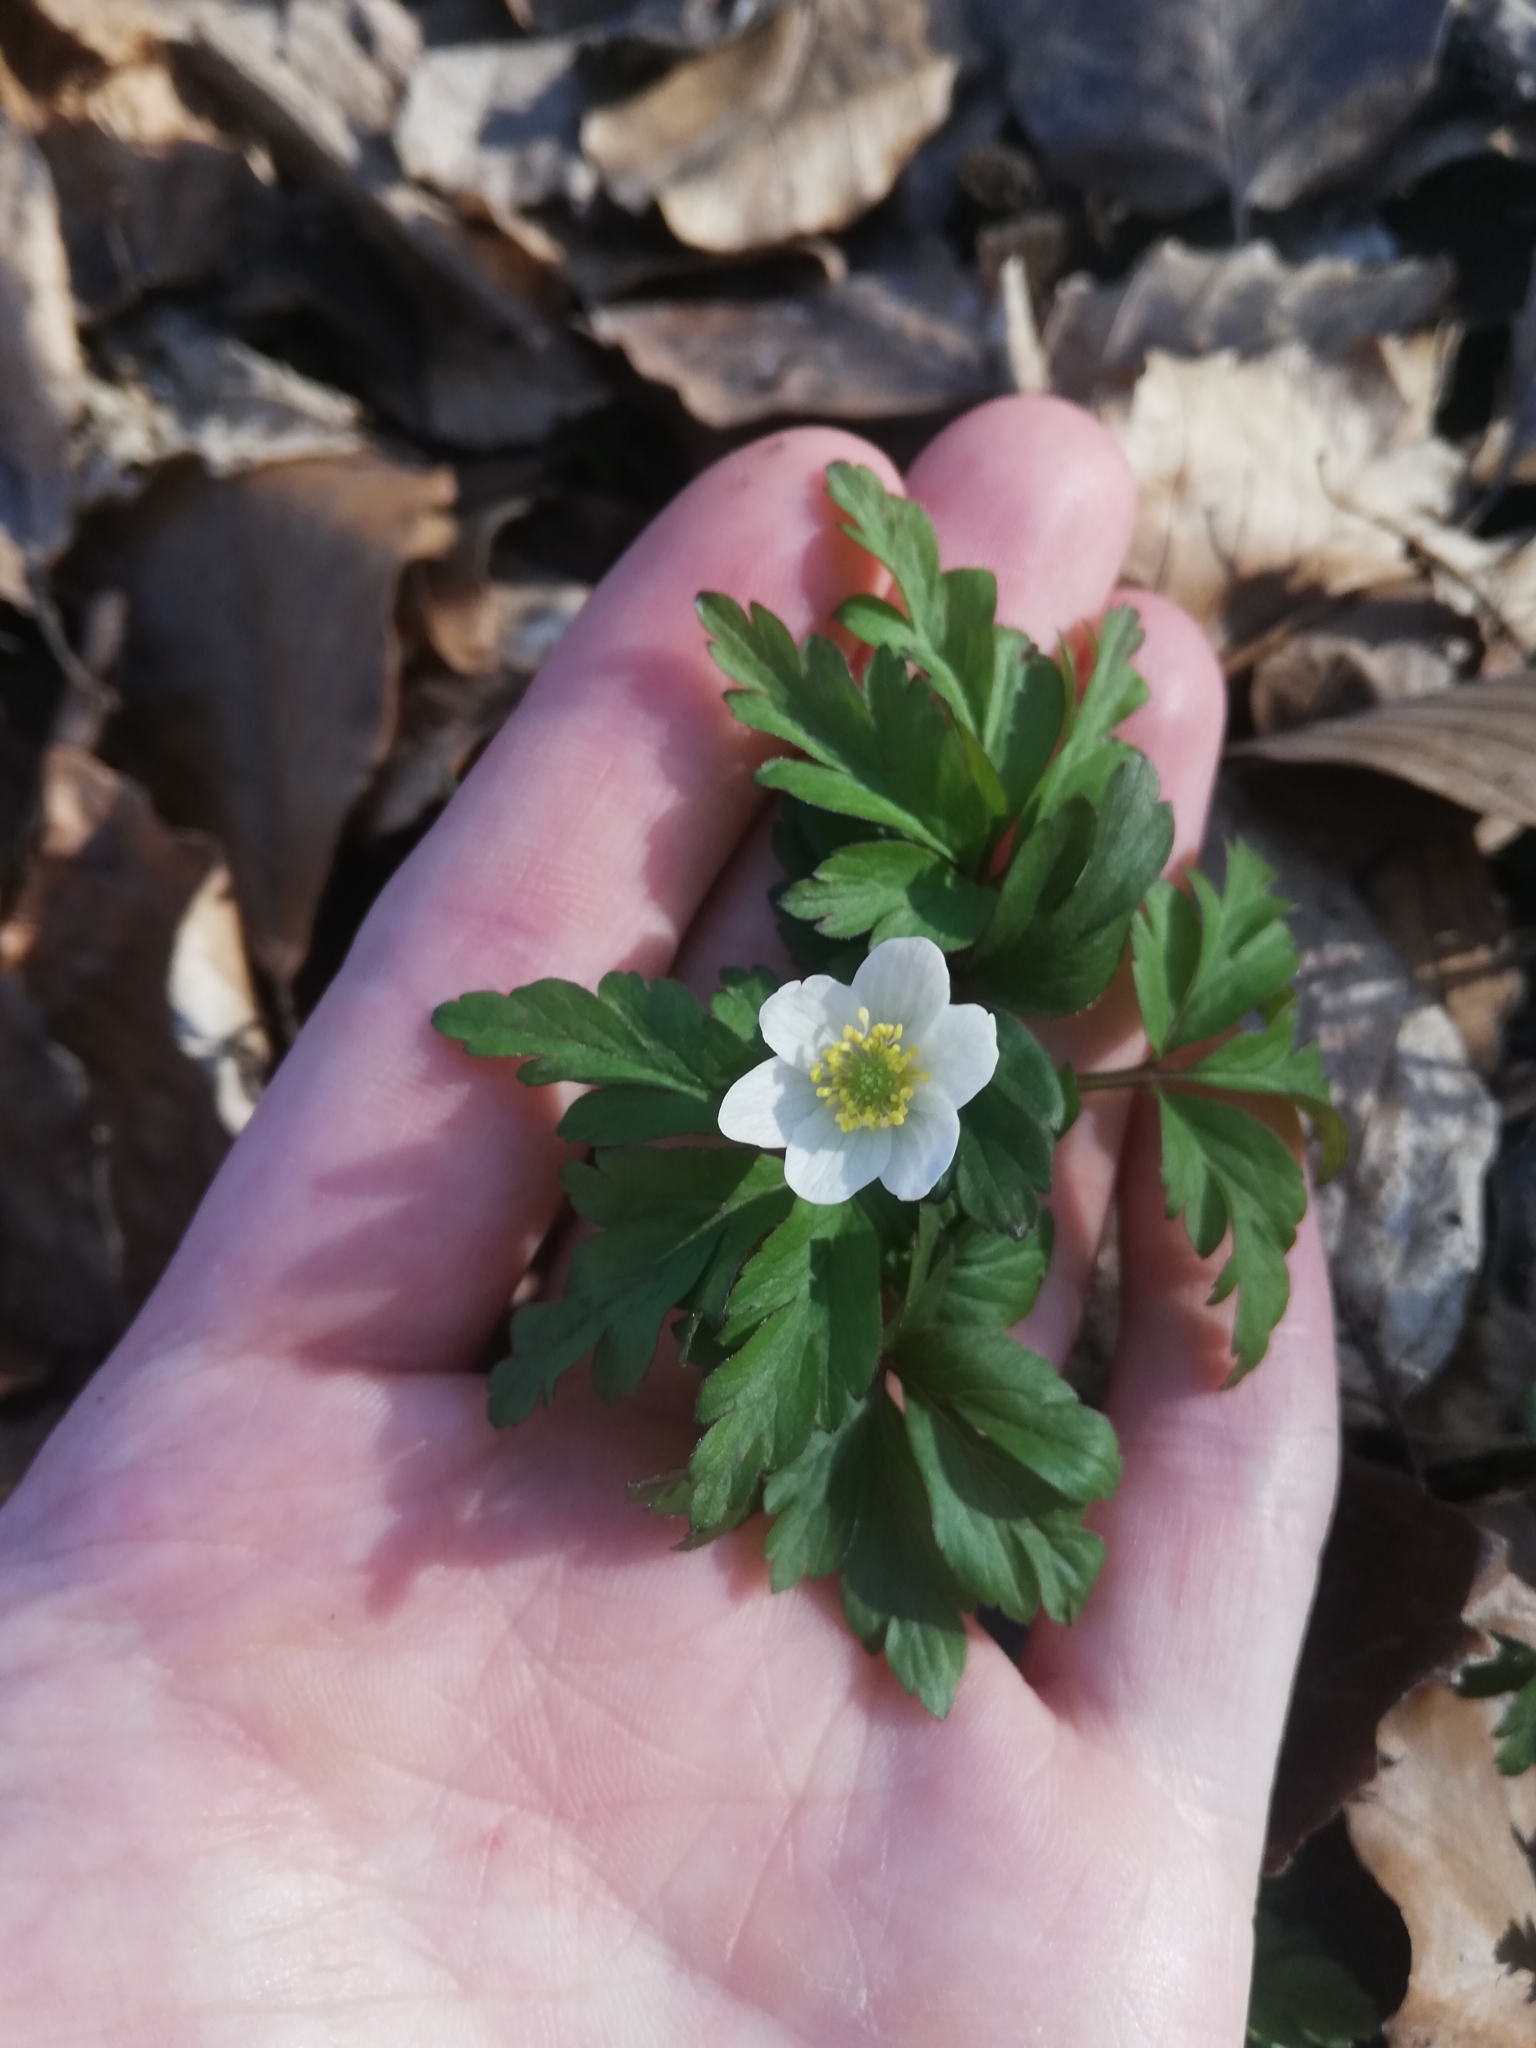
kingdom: Plantae
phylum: Tracheophyta
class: Magnoliopsida
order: Ranunculales
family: Ranunculaceae
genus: Anemone
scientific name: Anemone nemorosa
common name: Wood anemone
